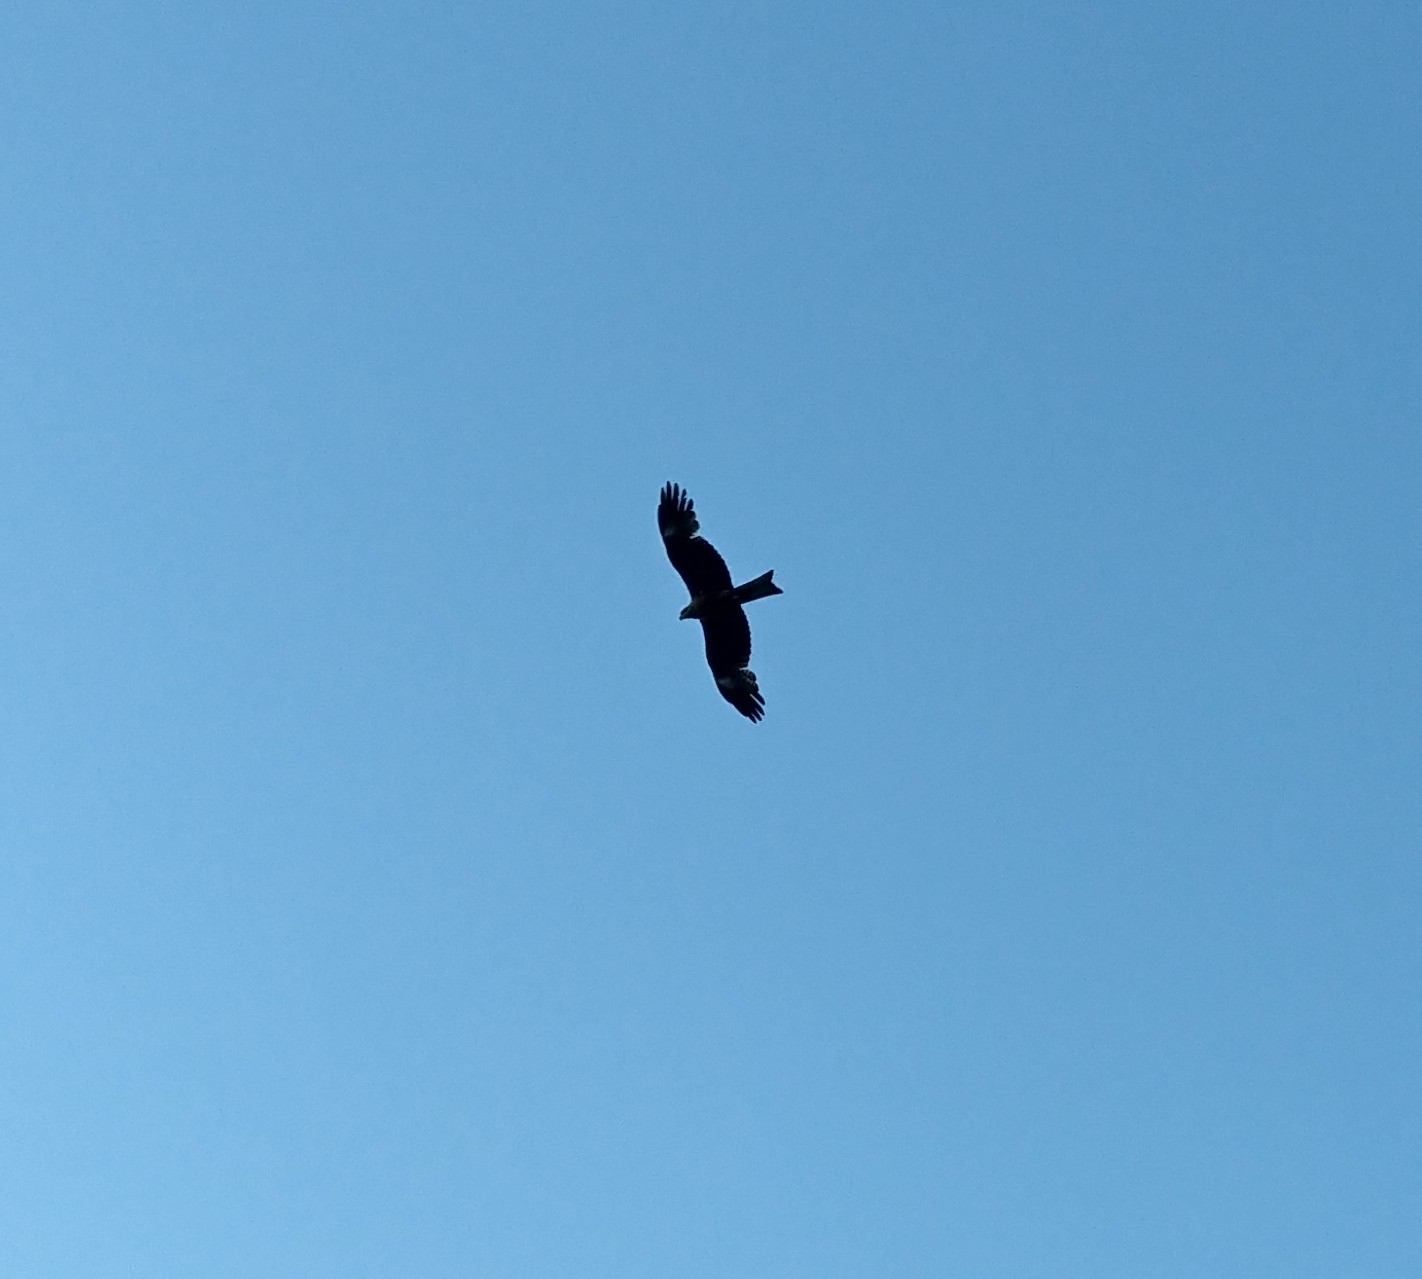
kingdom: Animalia
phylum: Chordata
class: Aves
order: Accipitriformes
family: Accipitridae
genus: Milvus
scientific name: Milvus migrans
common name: Black kite
